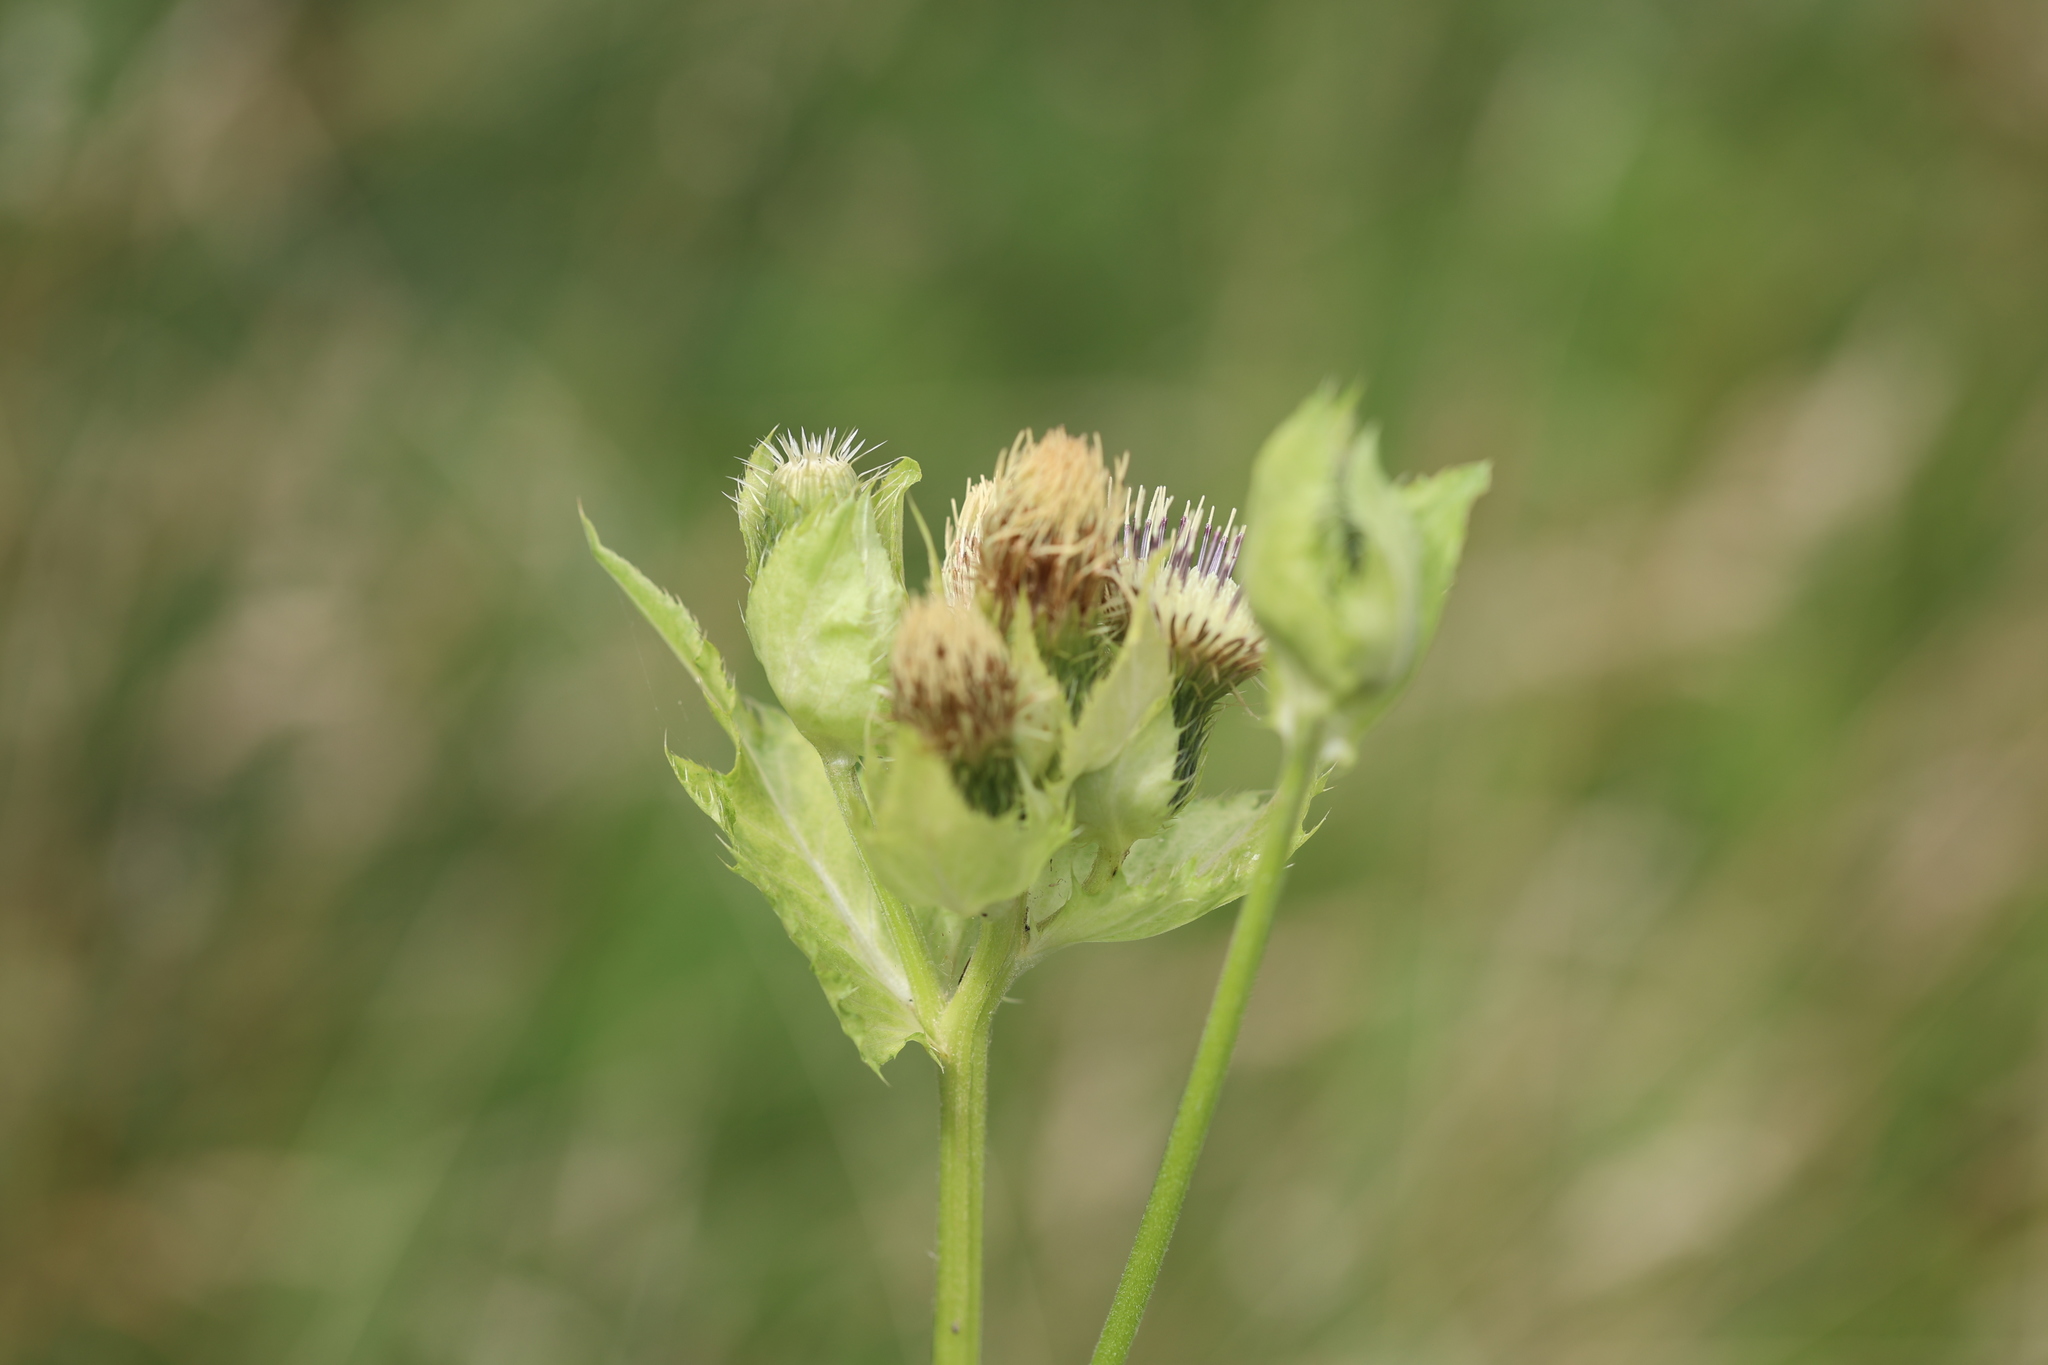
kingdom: Plantae
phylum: Tracheophyta
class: Magnoliopsida
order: Asterales
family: Asteraceae
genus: Cirsium
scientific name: Cirsium oleraceum
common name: Cabbage thistle
